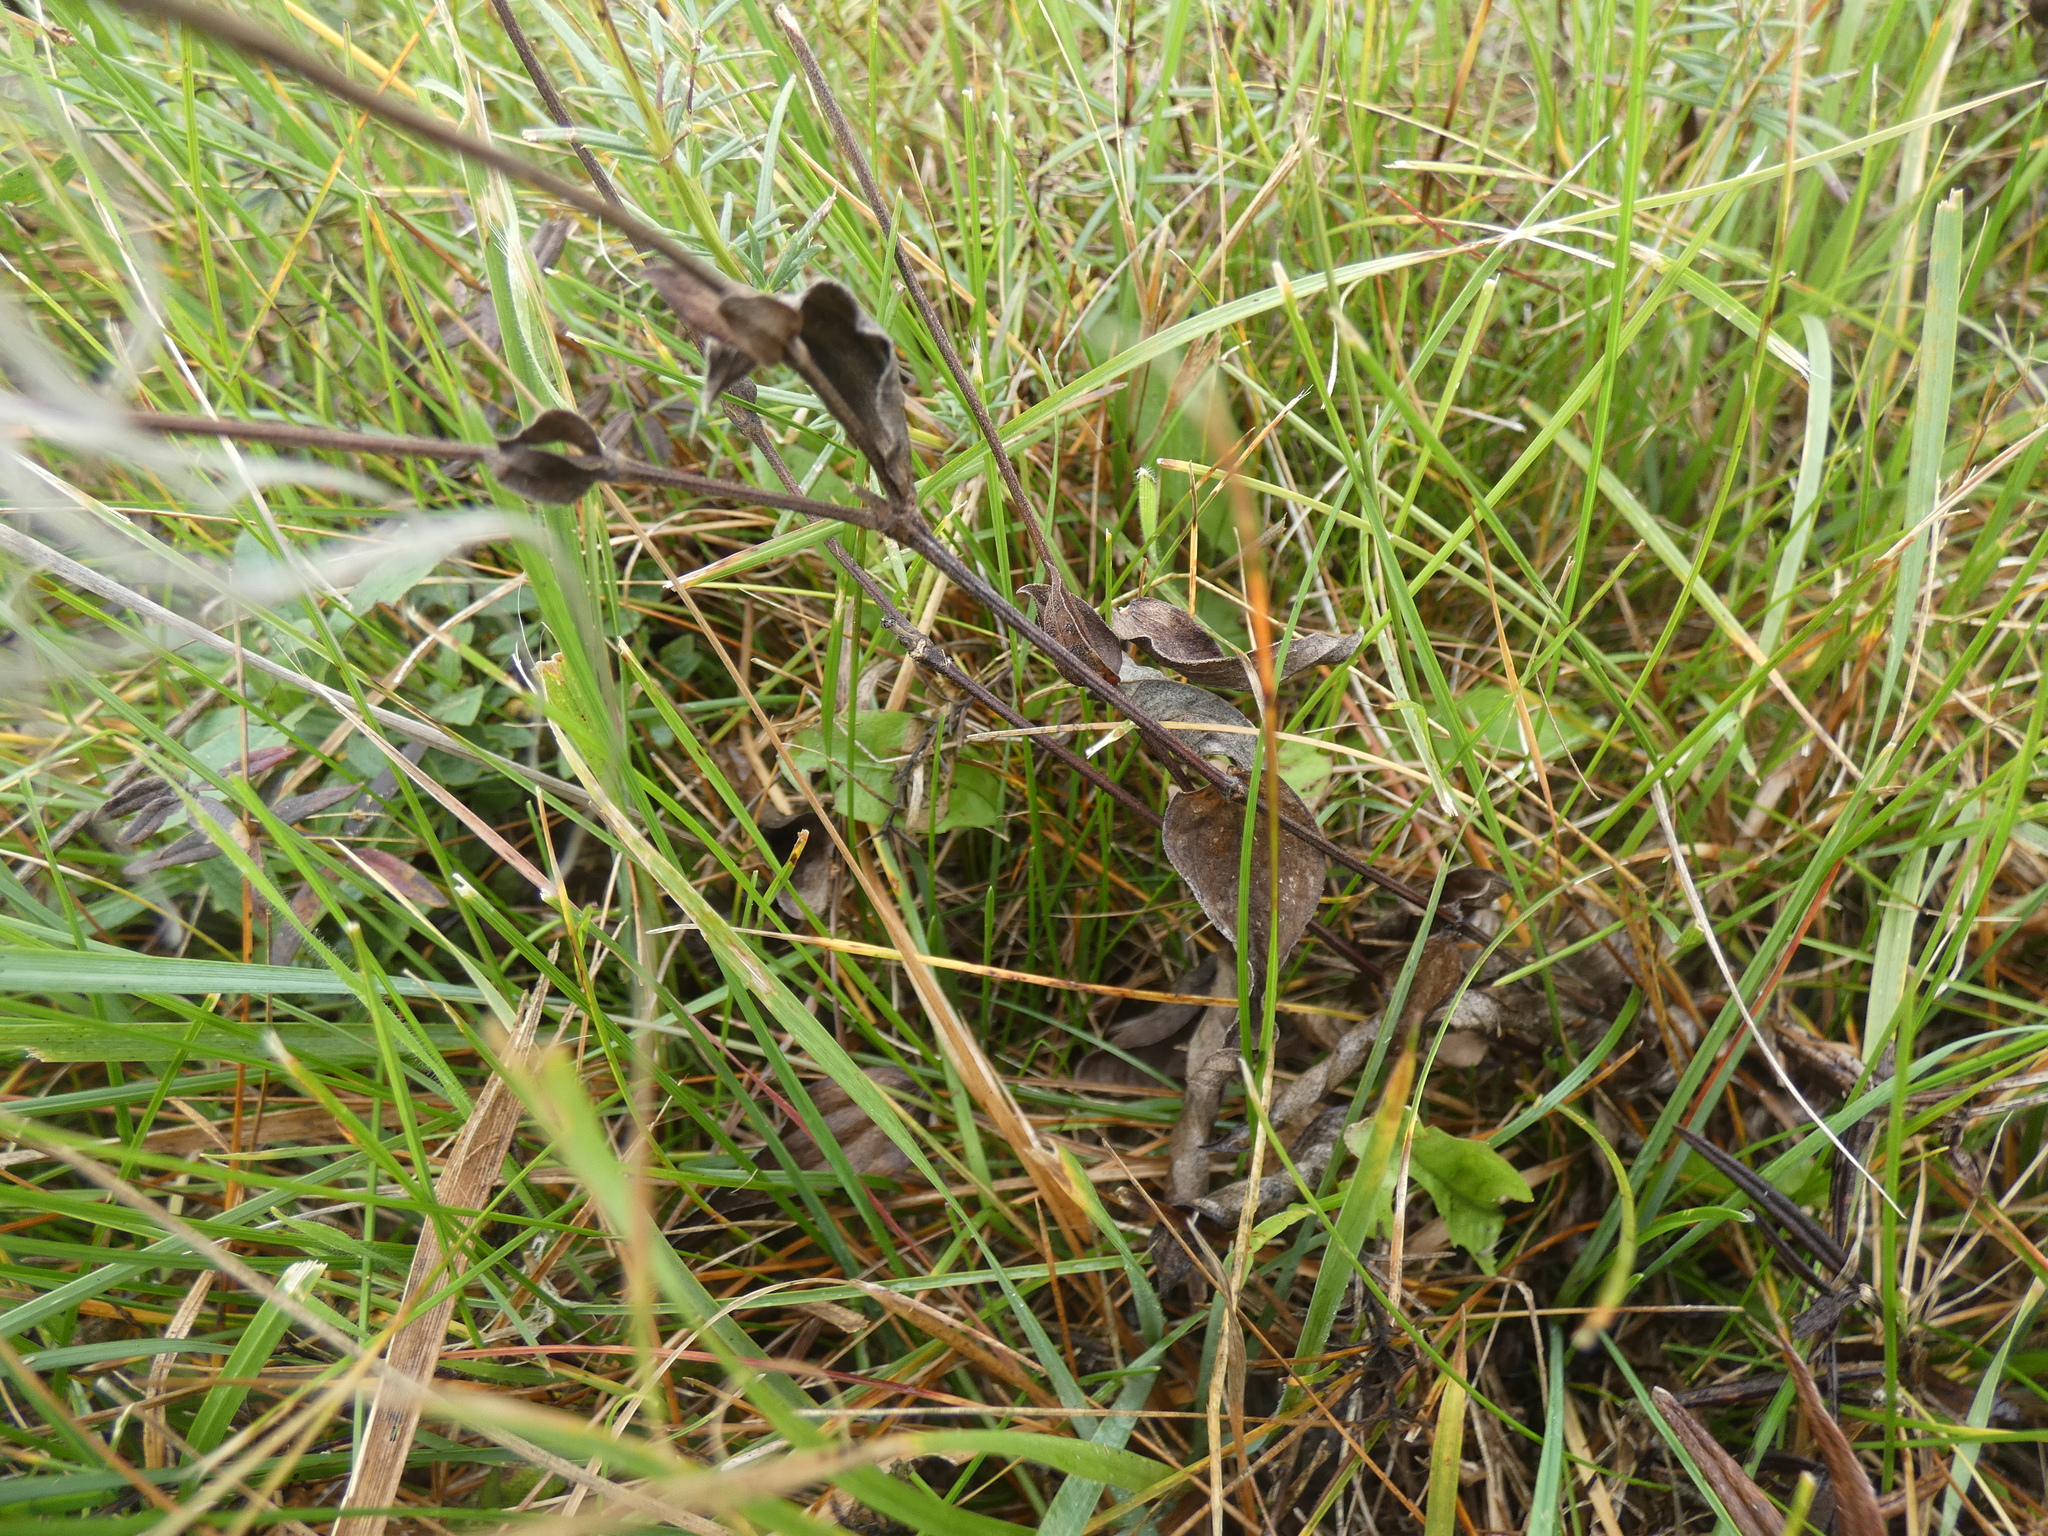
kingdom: Plantae
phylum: Tracheophyta
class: Magnoliopsida
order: Ranunculales
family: Ranunculaceae
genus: Clematis
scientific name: Clematis integrifolia
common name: Solitary clematis
